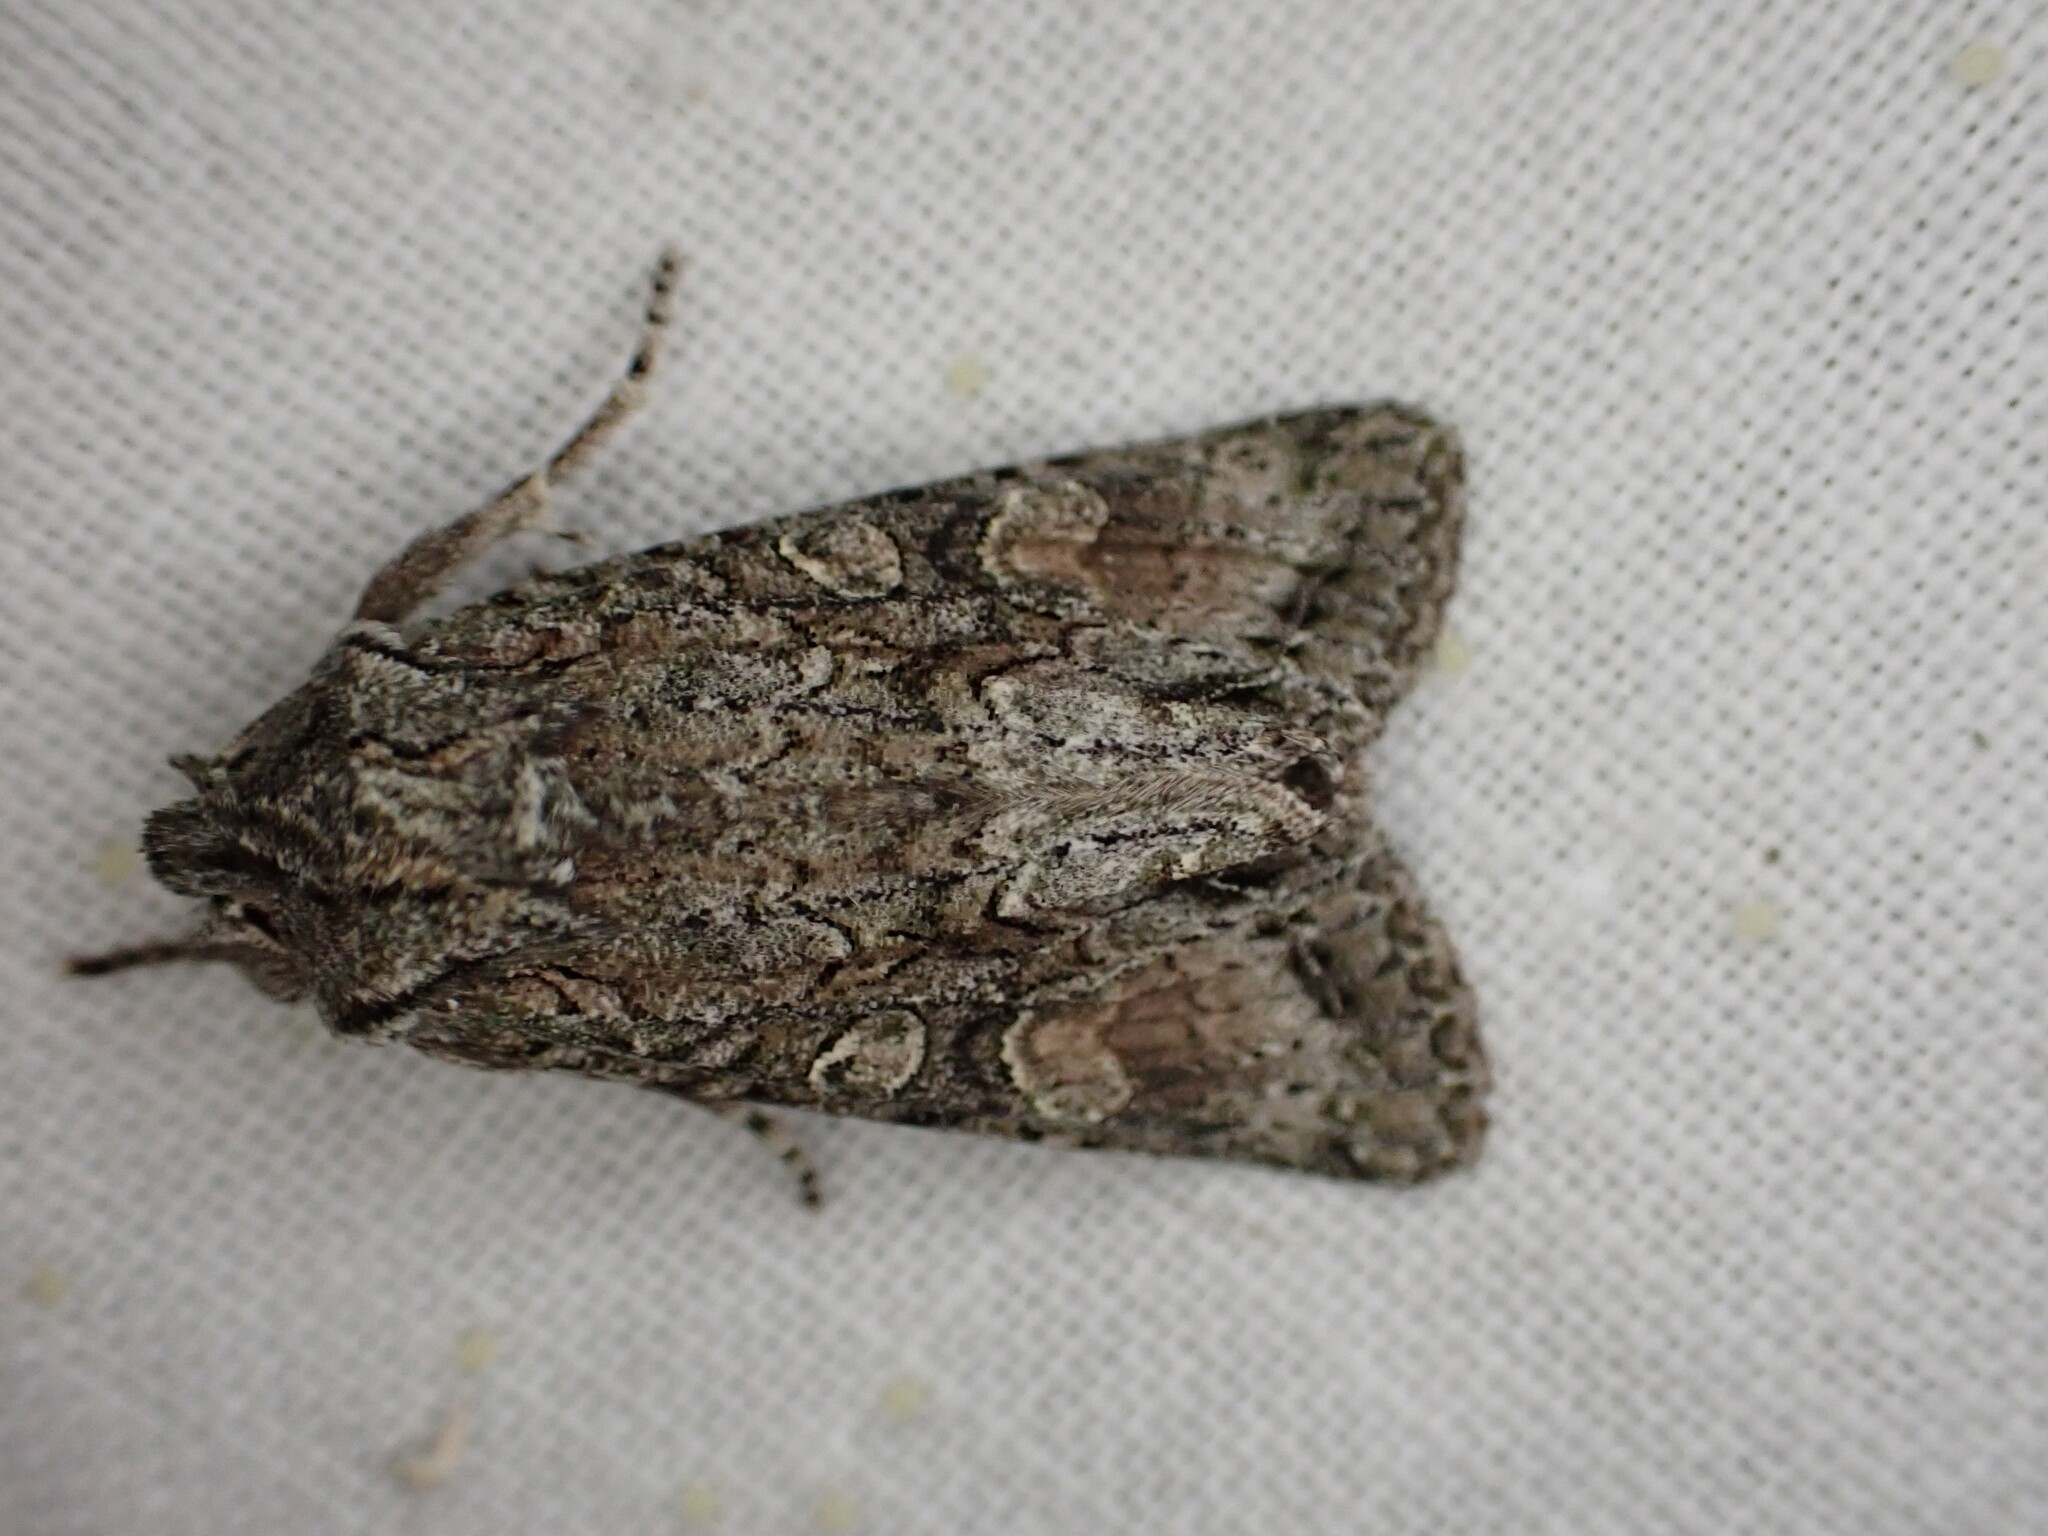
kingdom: Animalia
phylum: Arthropoda
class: Insecta
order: Lepidoptera
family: Noctuidae
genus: Ichneutica
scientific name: Ichneutica mutans
